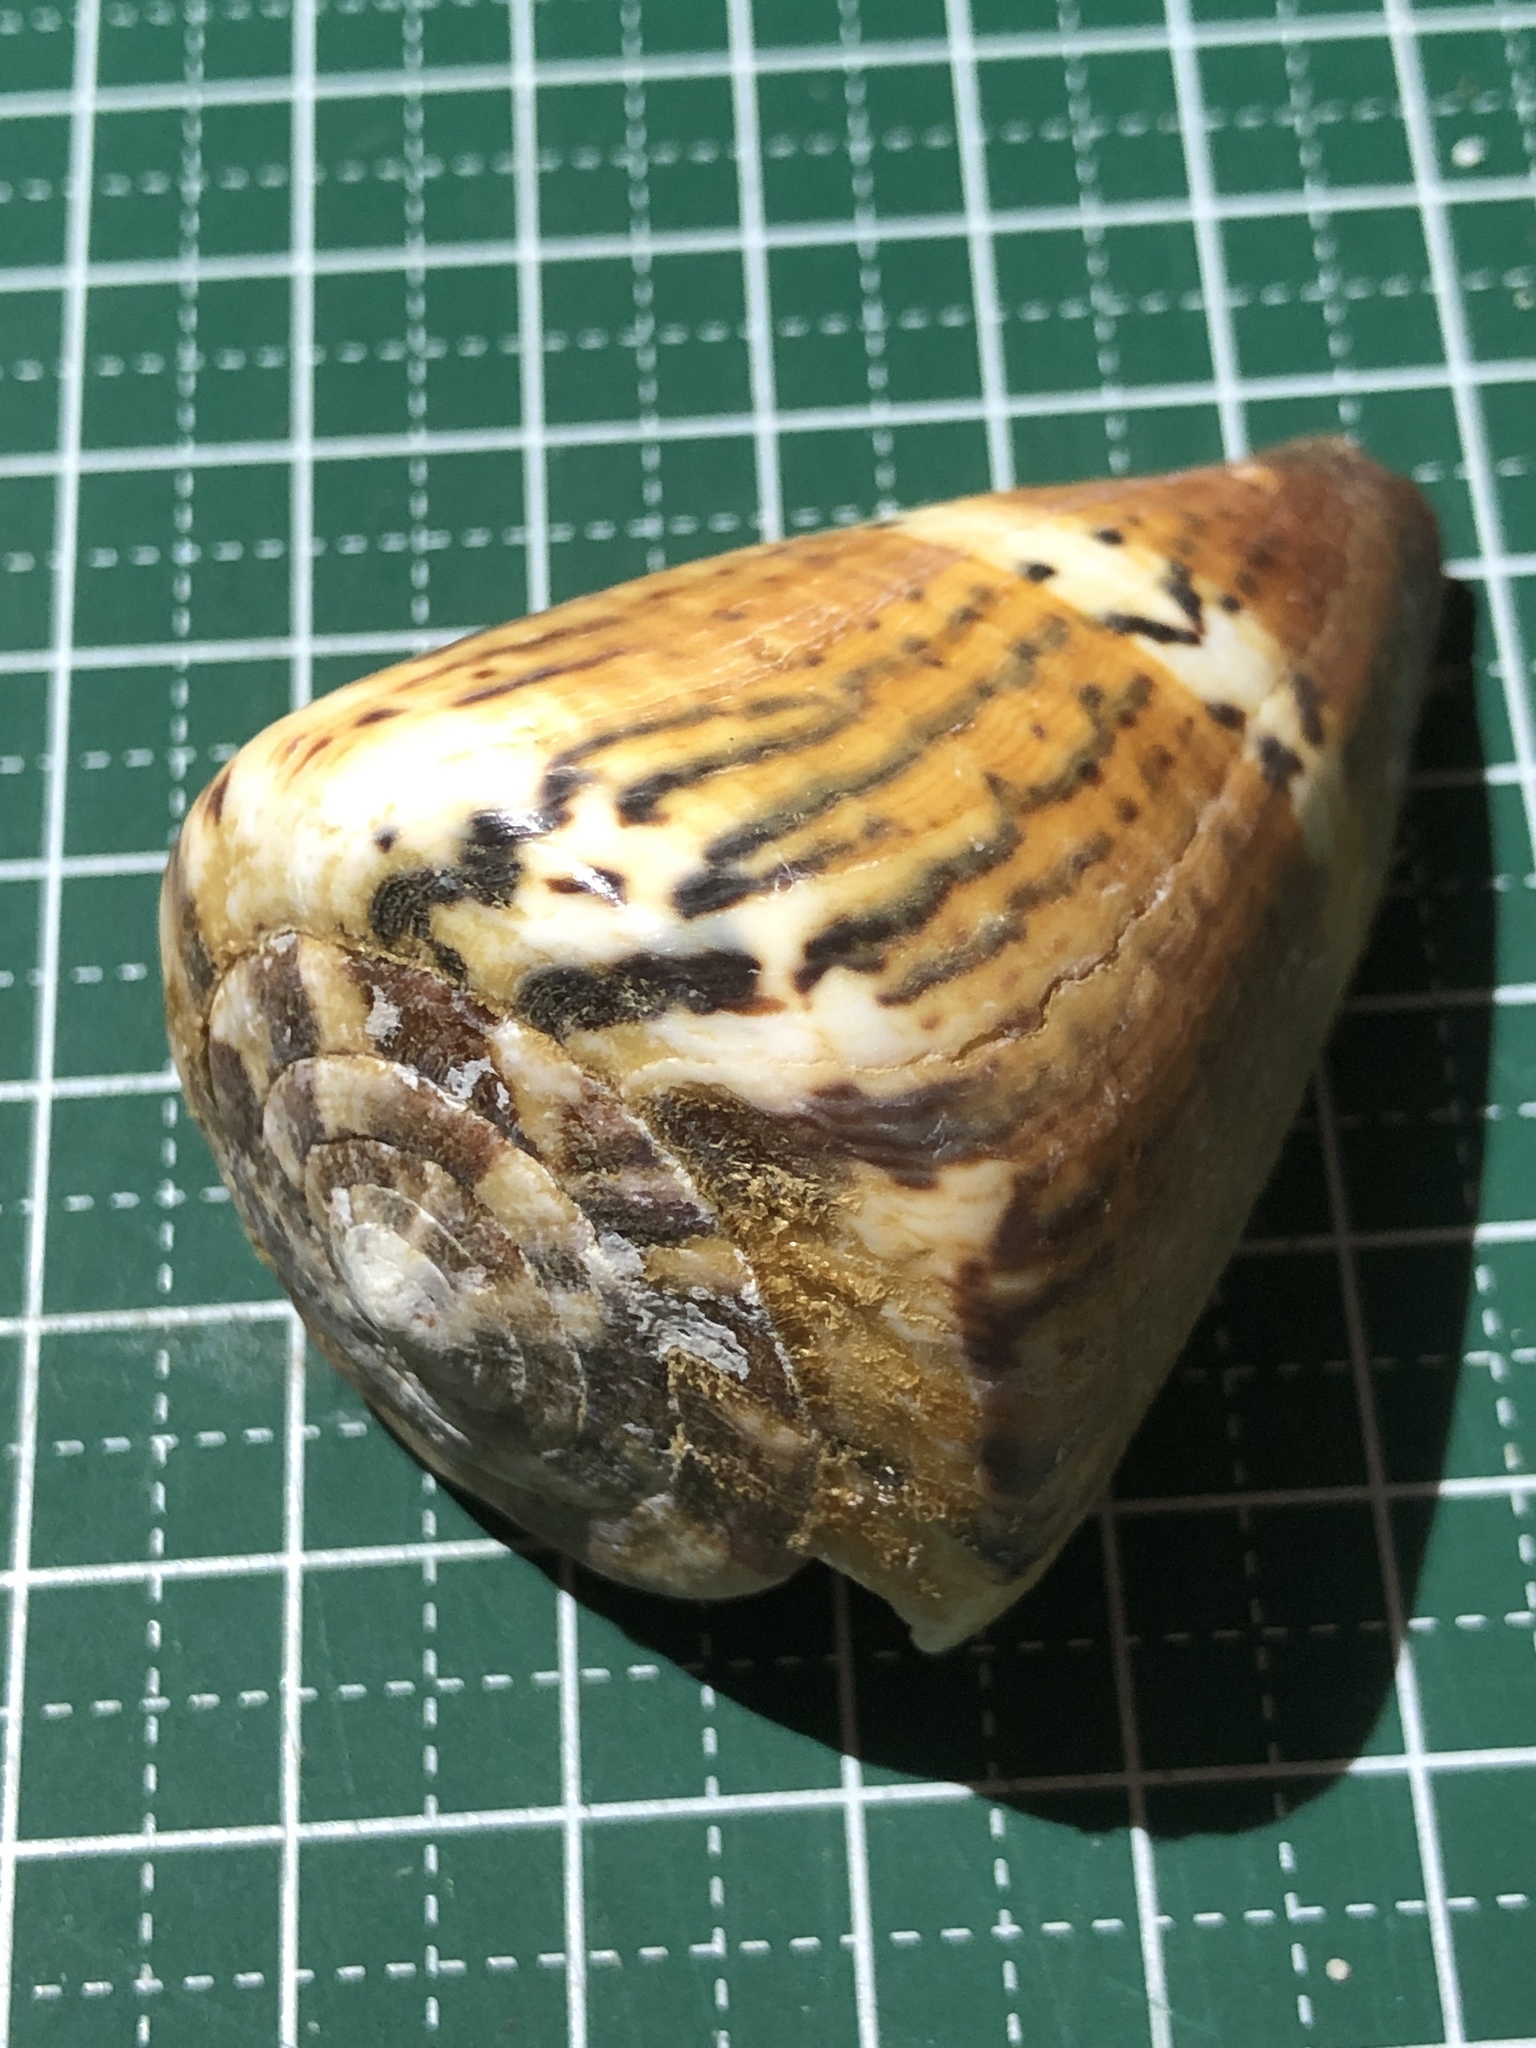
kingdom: Animalia
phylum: Mollusca
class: Gastropoda
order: Neogastropoda
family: Conidae
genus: Conus
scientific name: Conus capitaneus
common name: Captain cone
